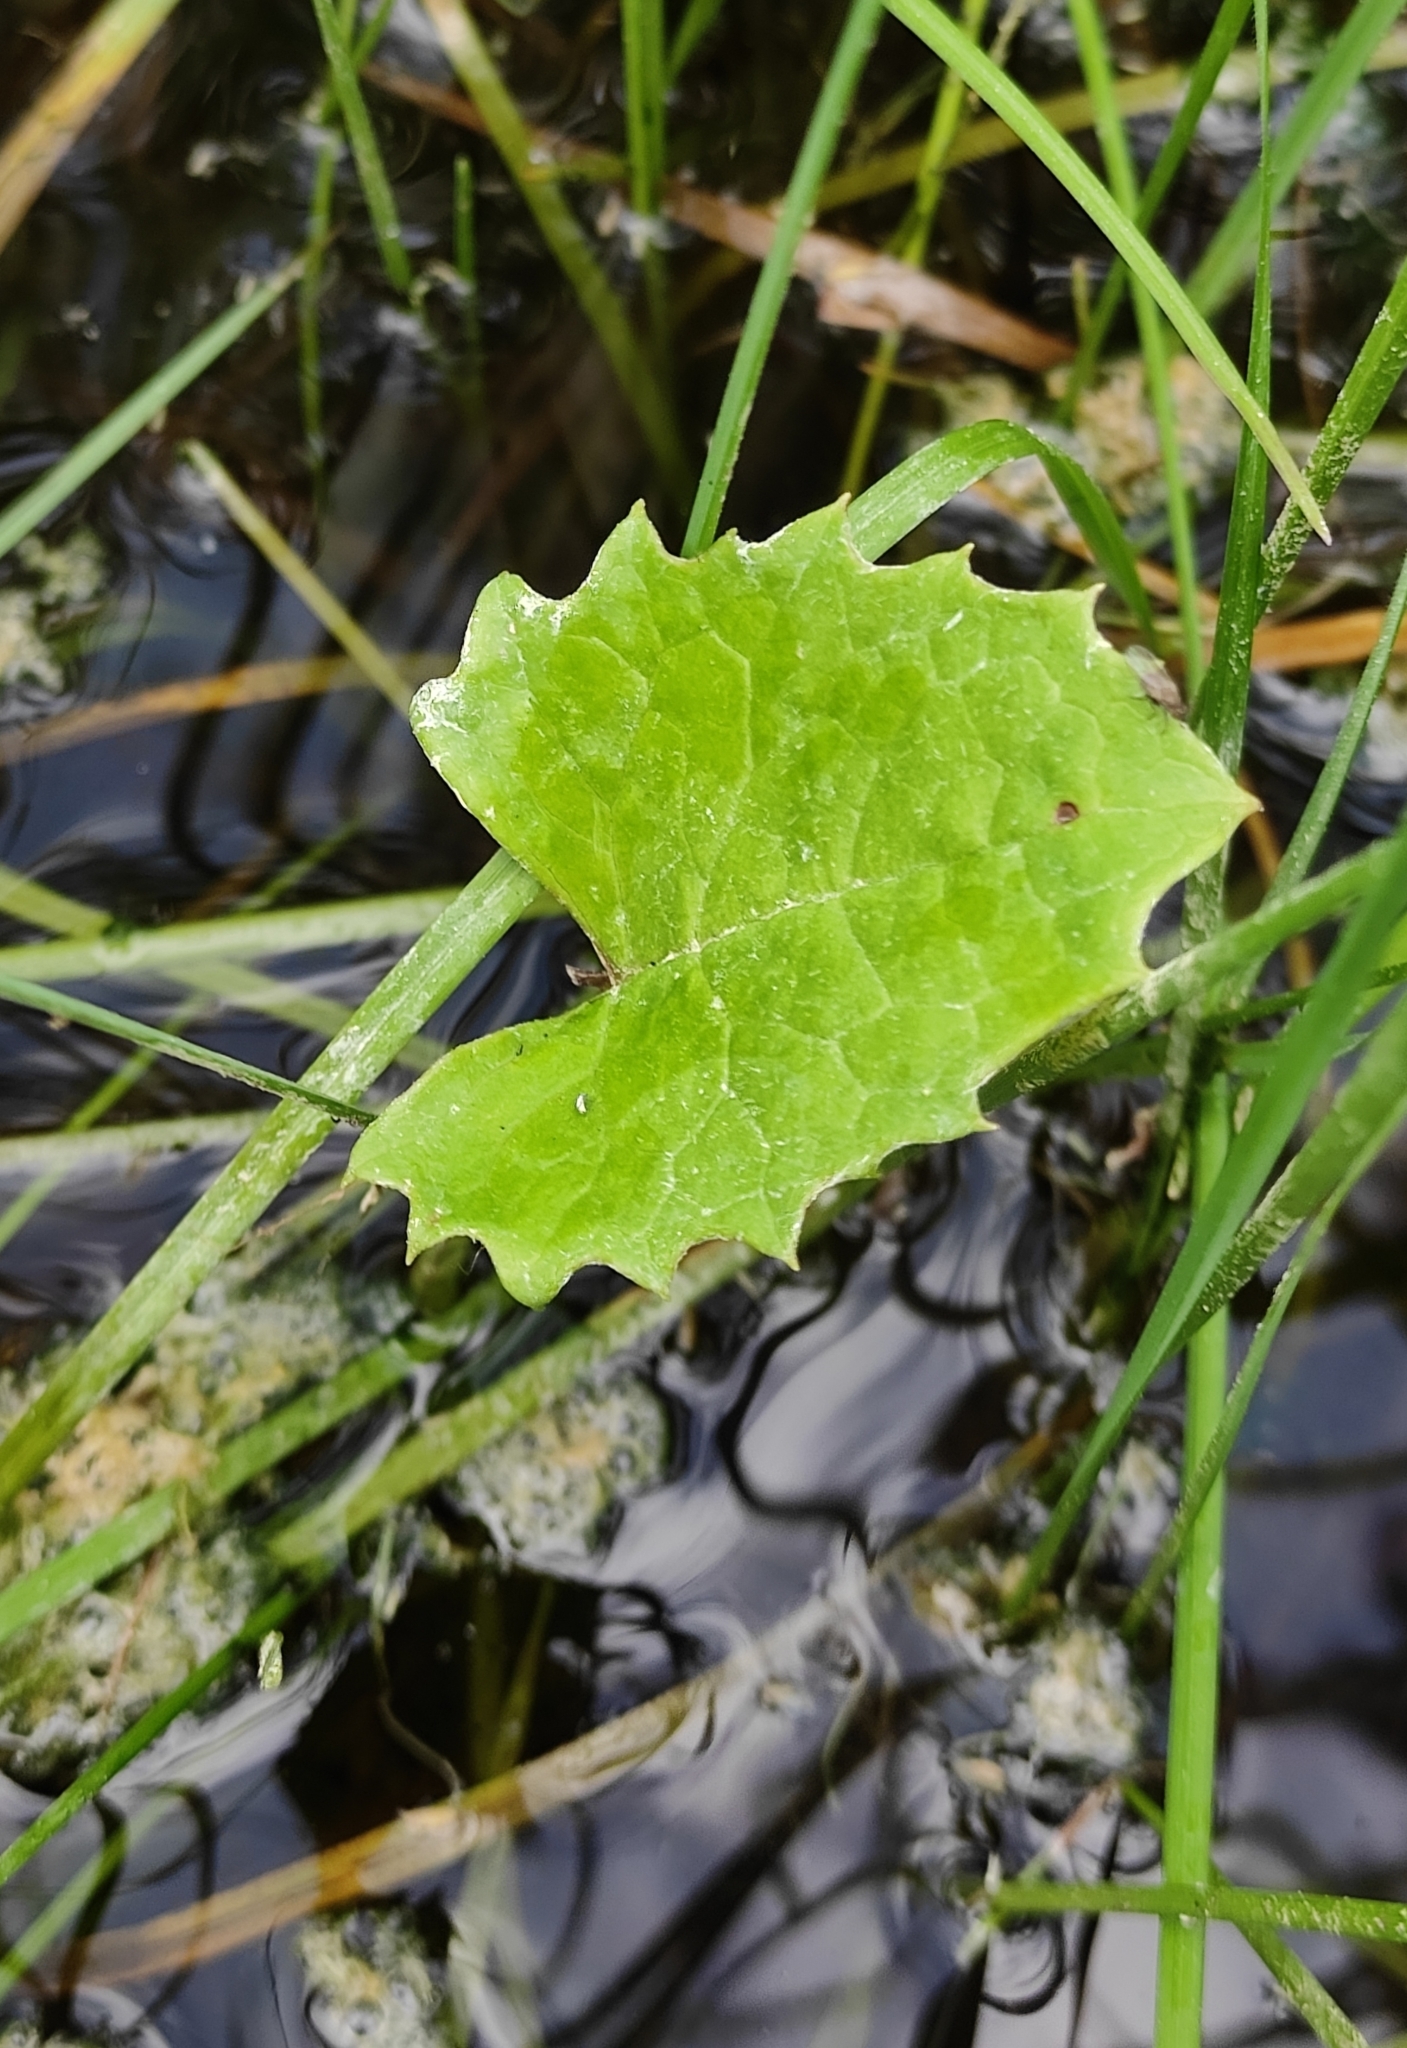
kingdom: Plantae
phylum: Tracheophyta
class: Magnoliopsida
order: Asterales
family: Asteraceae
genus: Petasites
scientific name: Petasites frigidus
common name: Arctic butterbur
